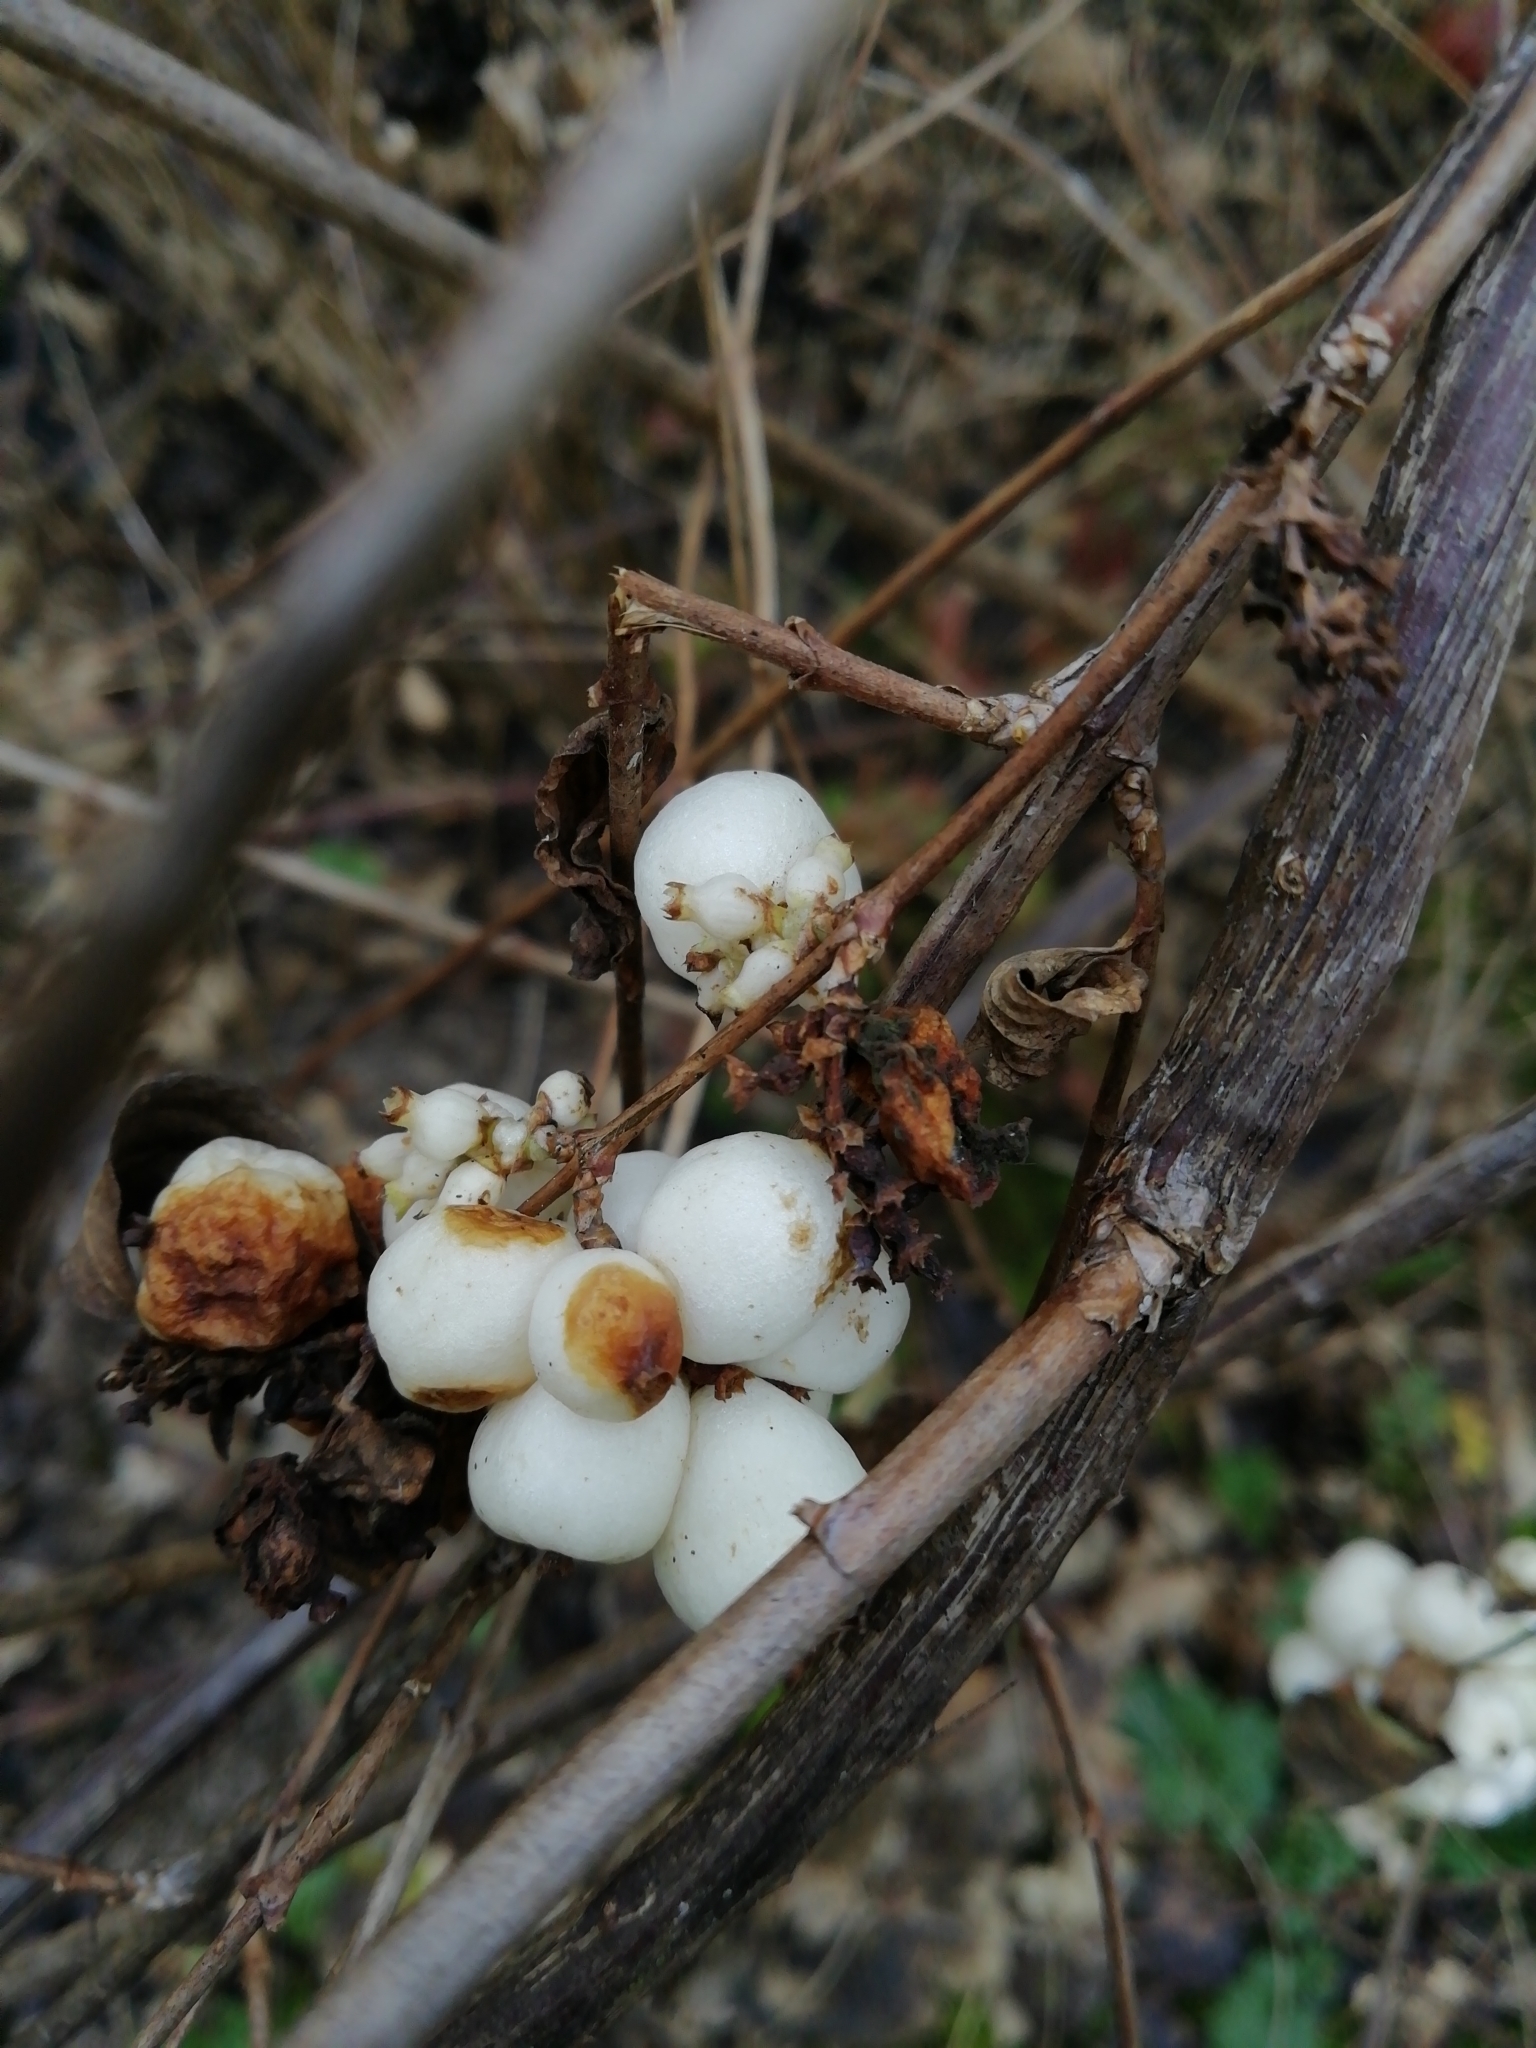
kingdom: Plantae
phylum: Tracheophyta
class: Magnoliopsida
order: Dipsacales
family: Caprifoliaceae
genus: Symphoricarpos
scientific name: Symphoricarpos albus
